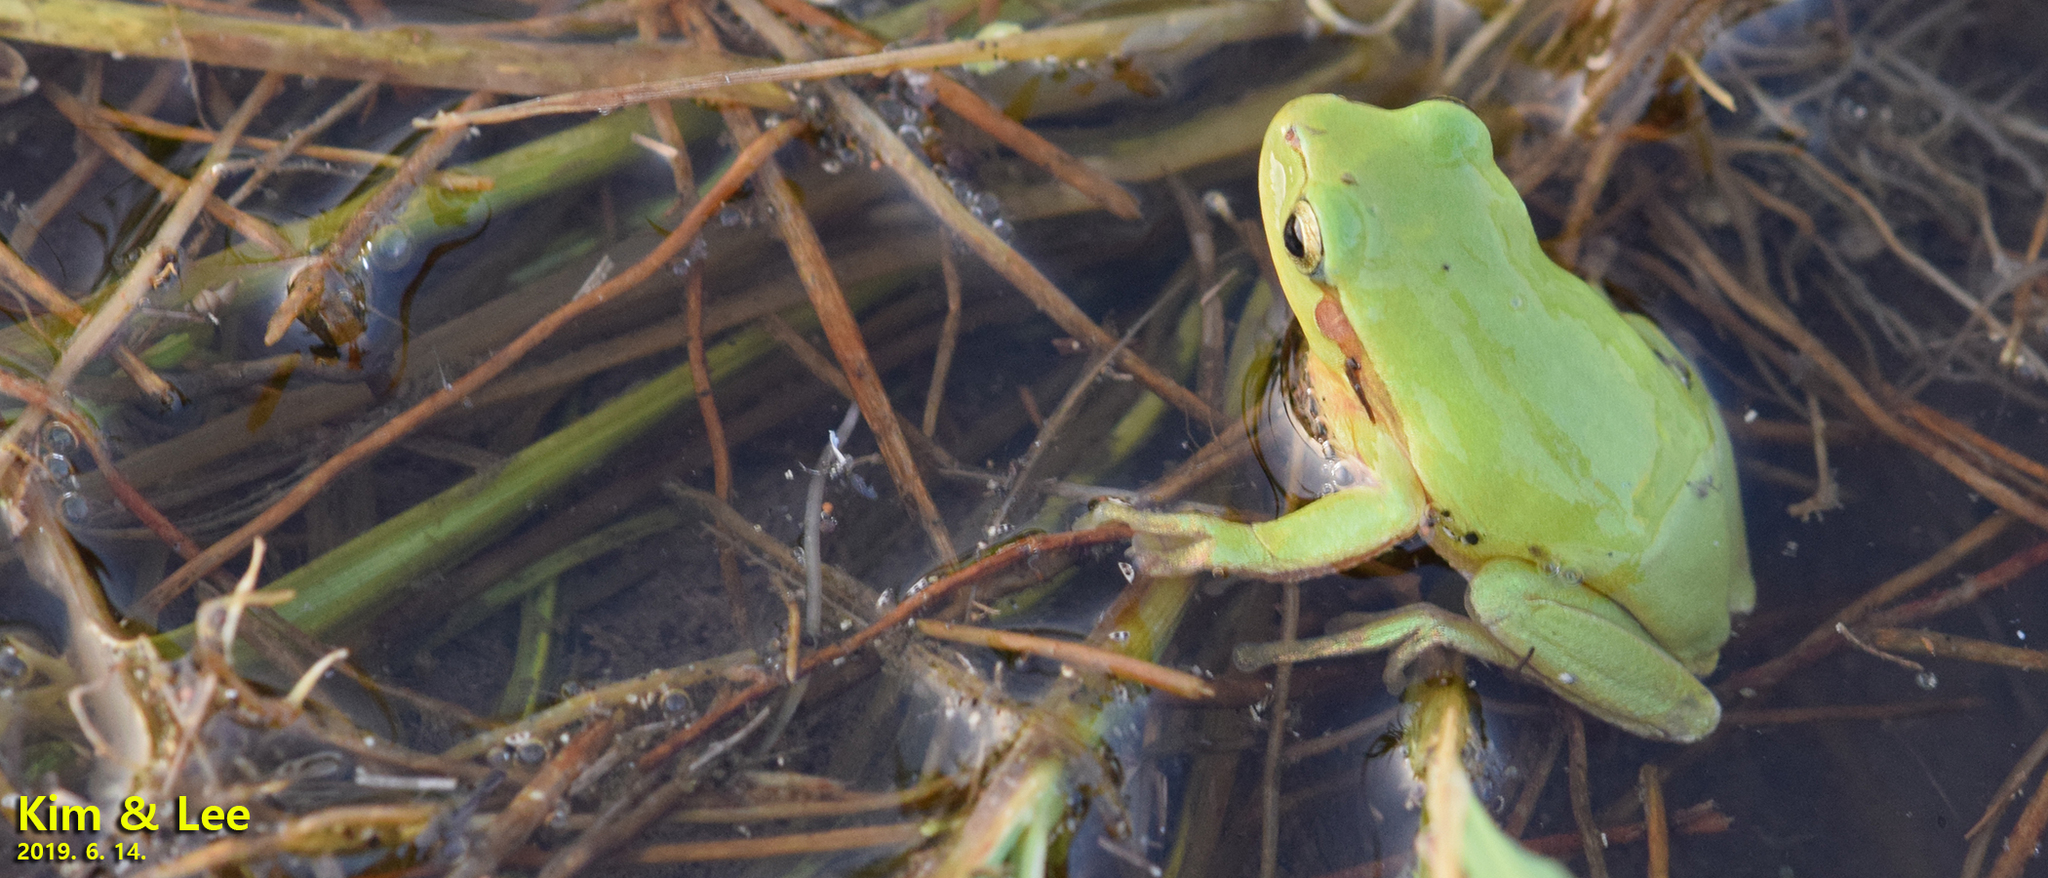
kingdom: Animalia
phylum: Chordata
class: Amphibia
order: Anura
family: Hylidae
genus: Dryophytes
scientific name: Dryophytes immaculatus
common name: North china treefrog
